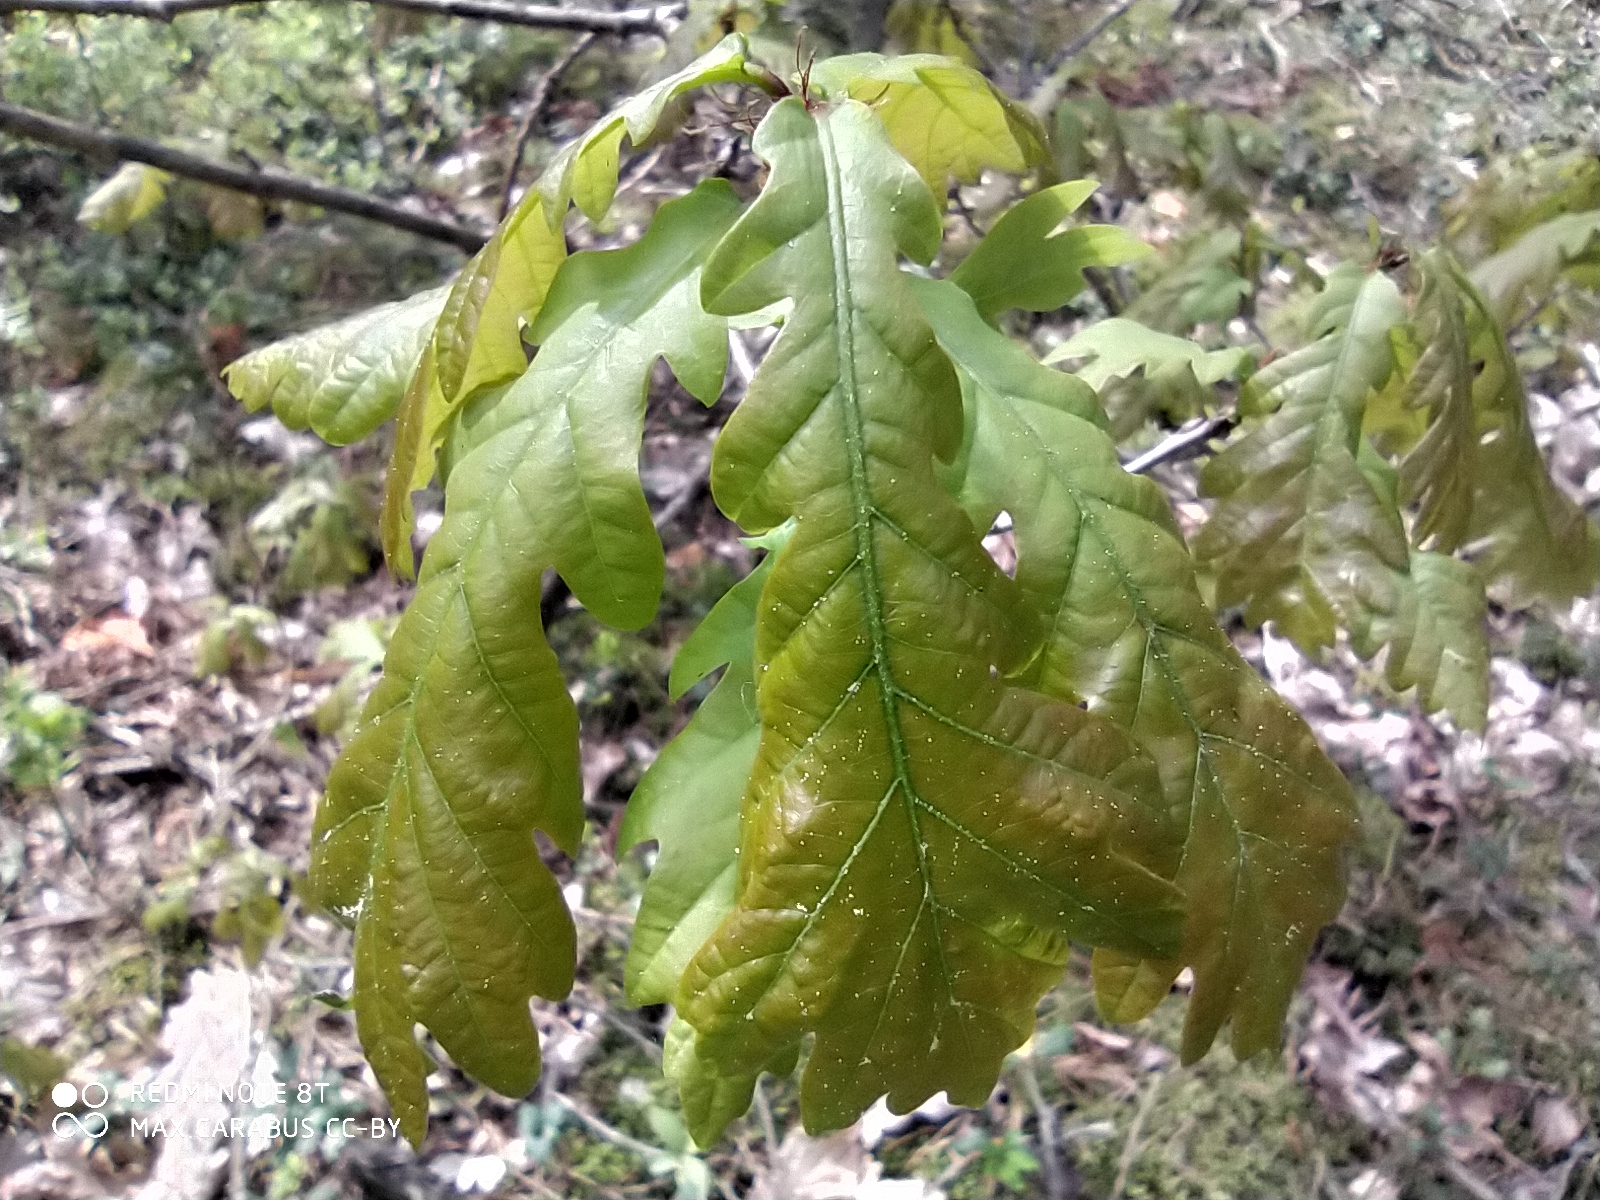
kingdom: Plantae
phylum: Tracheophyta
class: Magnoliopsida
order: Fagales
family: Fagaceae
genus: Quercus
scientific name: Quercus robur
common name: Pedunculate oak
